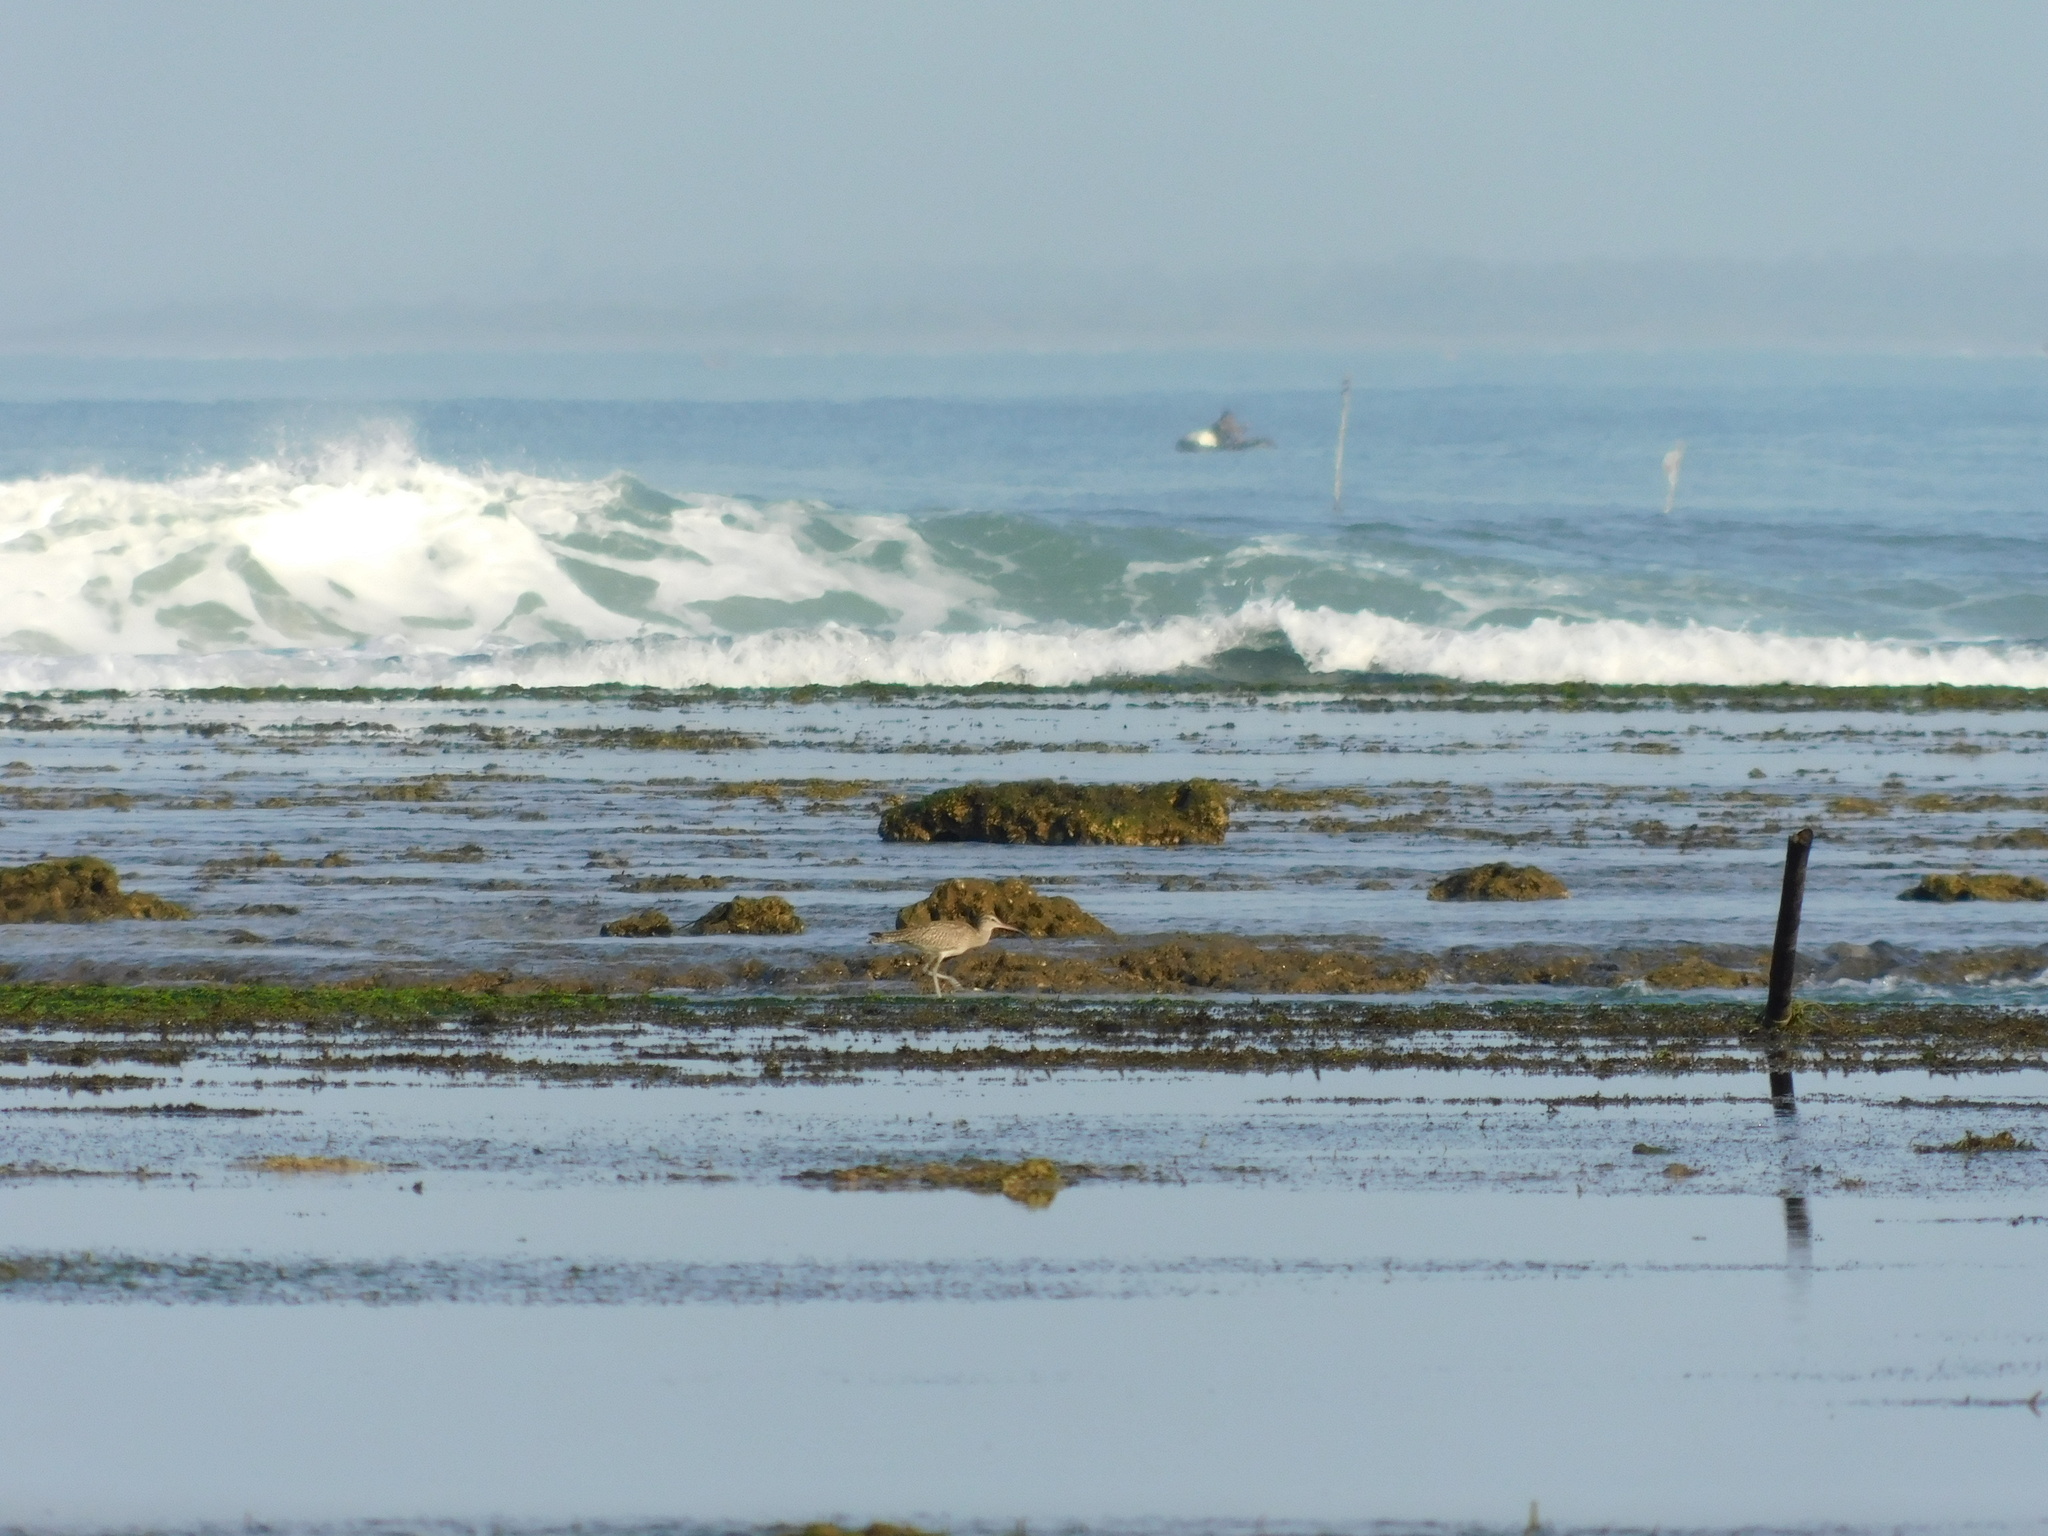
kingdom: Animalia
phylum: Chordata
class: Aves
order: Charadriiformes
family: Scolopacidae
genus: Numenius
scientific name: Numenius phaeopus
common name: Whimbrel
